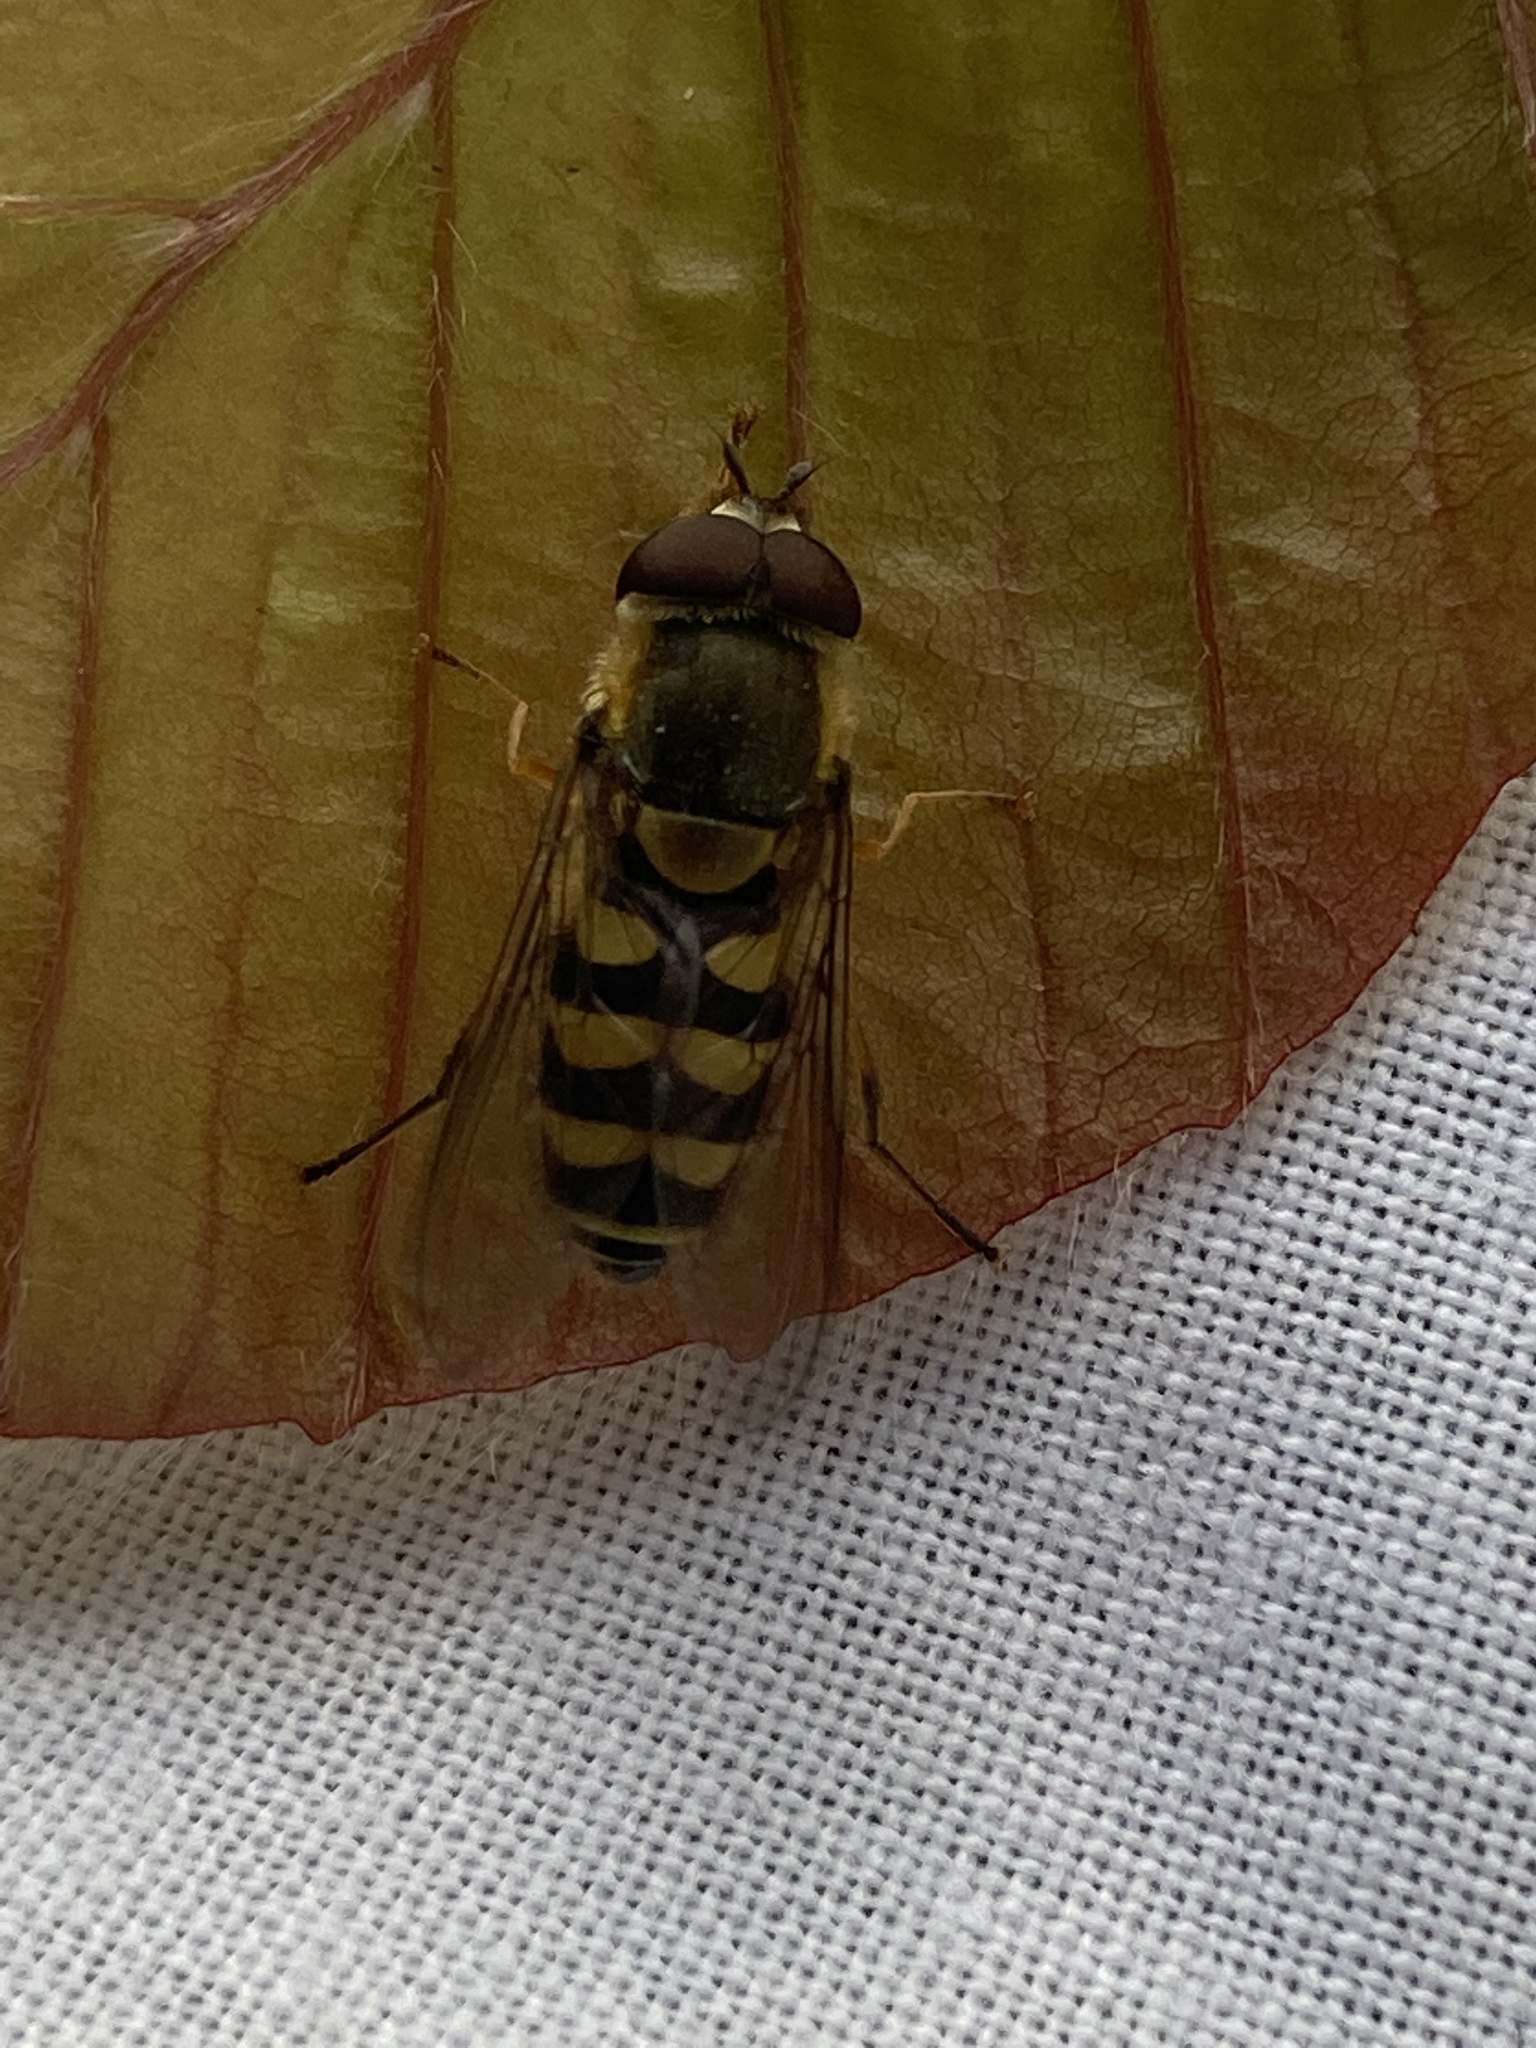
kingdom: Animalia
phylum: Arthropoda
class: Insecta
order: Diptera
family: Syrphidae
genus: Syrphus
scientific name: Syrphus
